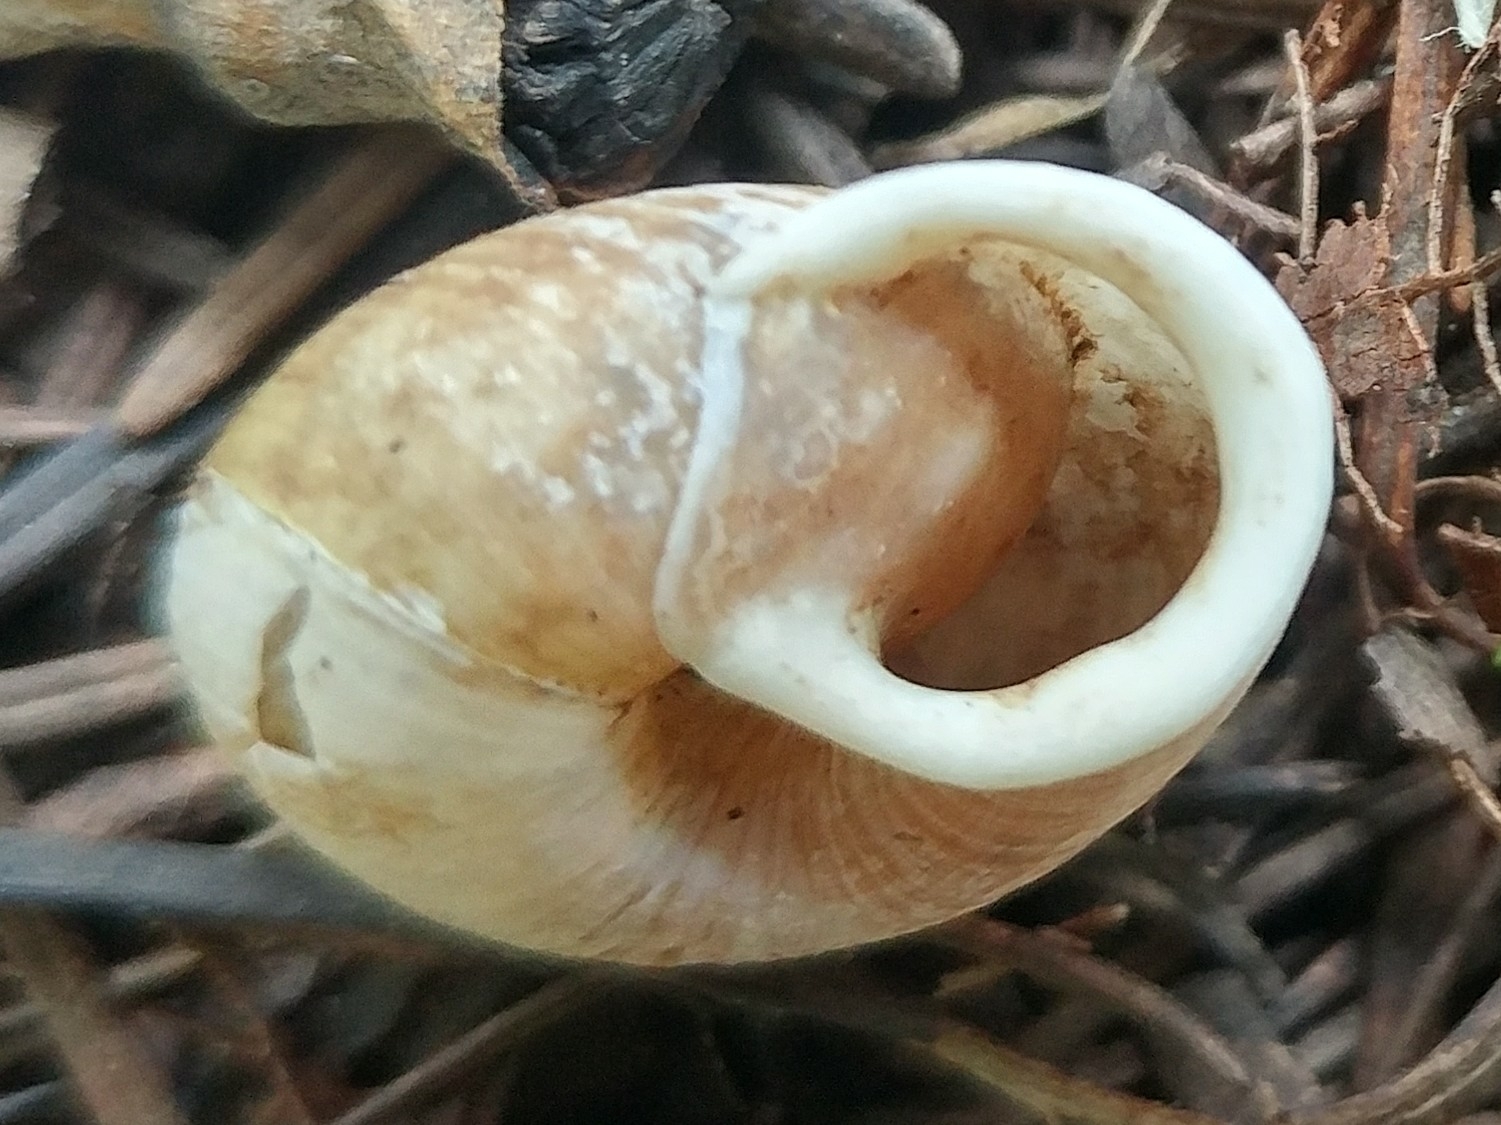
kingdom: Animalia
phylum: Mollusca
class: Gastropoda
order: Stylommatophora
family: Polygyridae
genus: Ashmunella
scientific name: Ashmunella rhyssa
